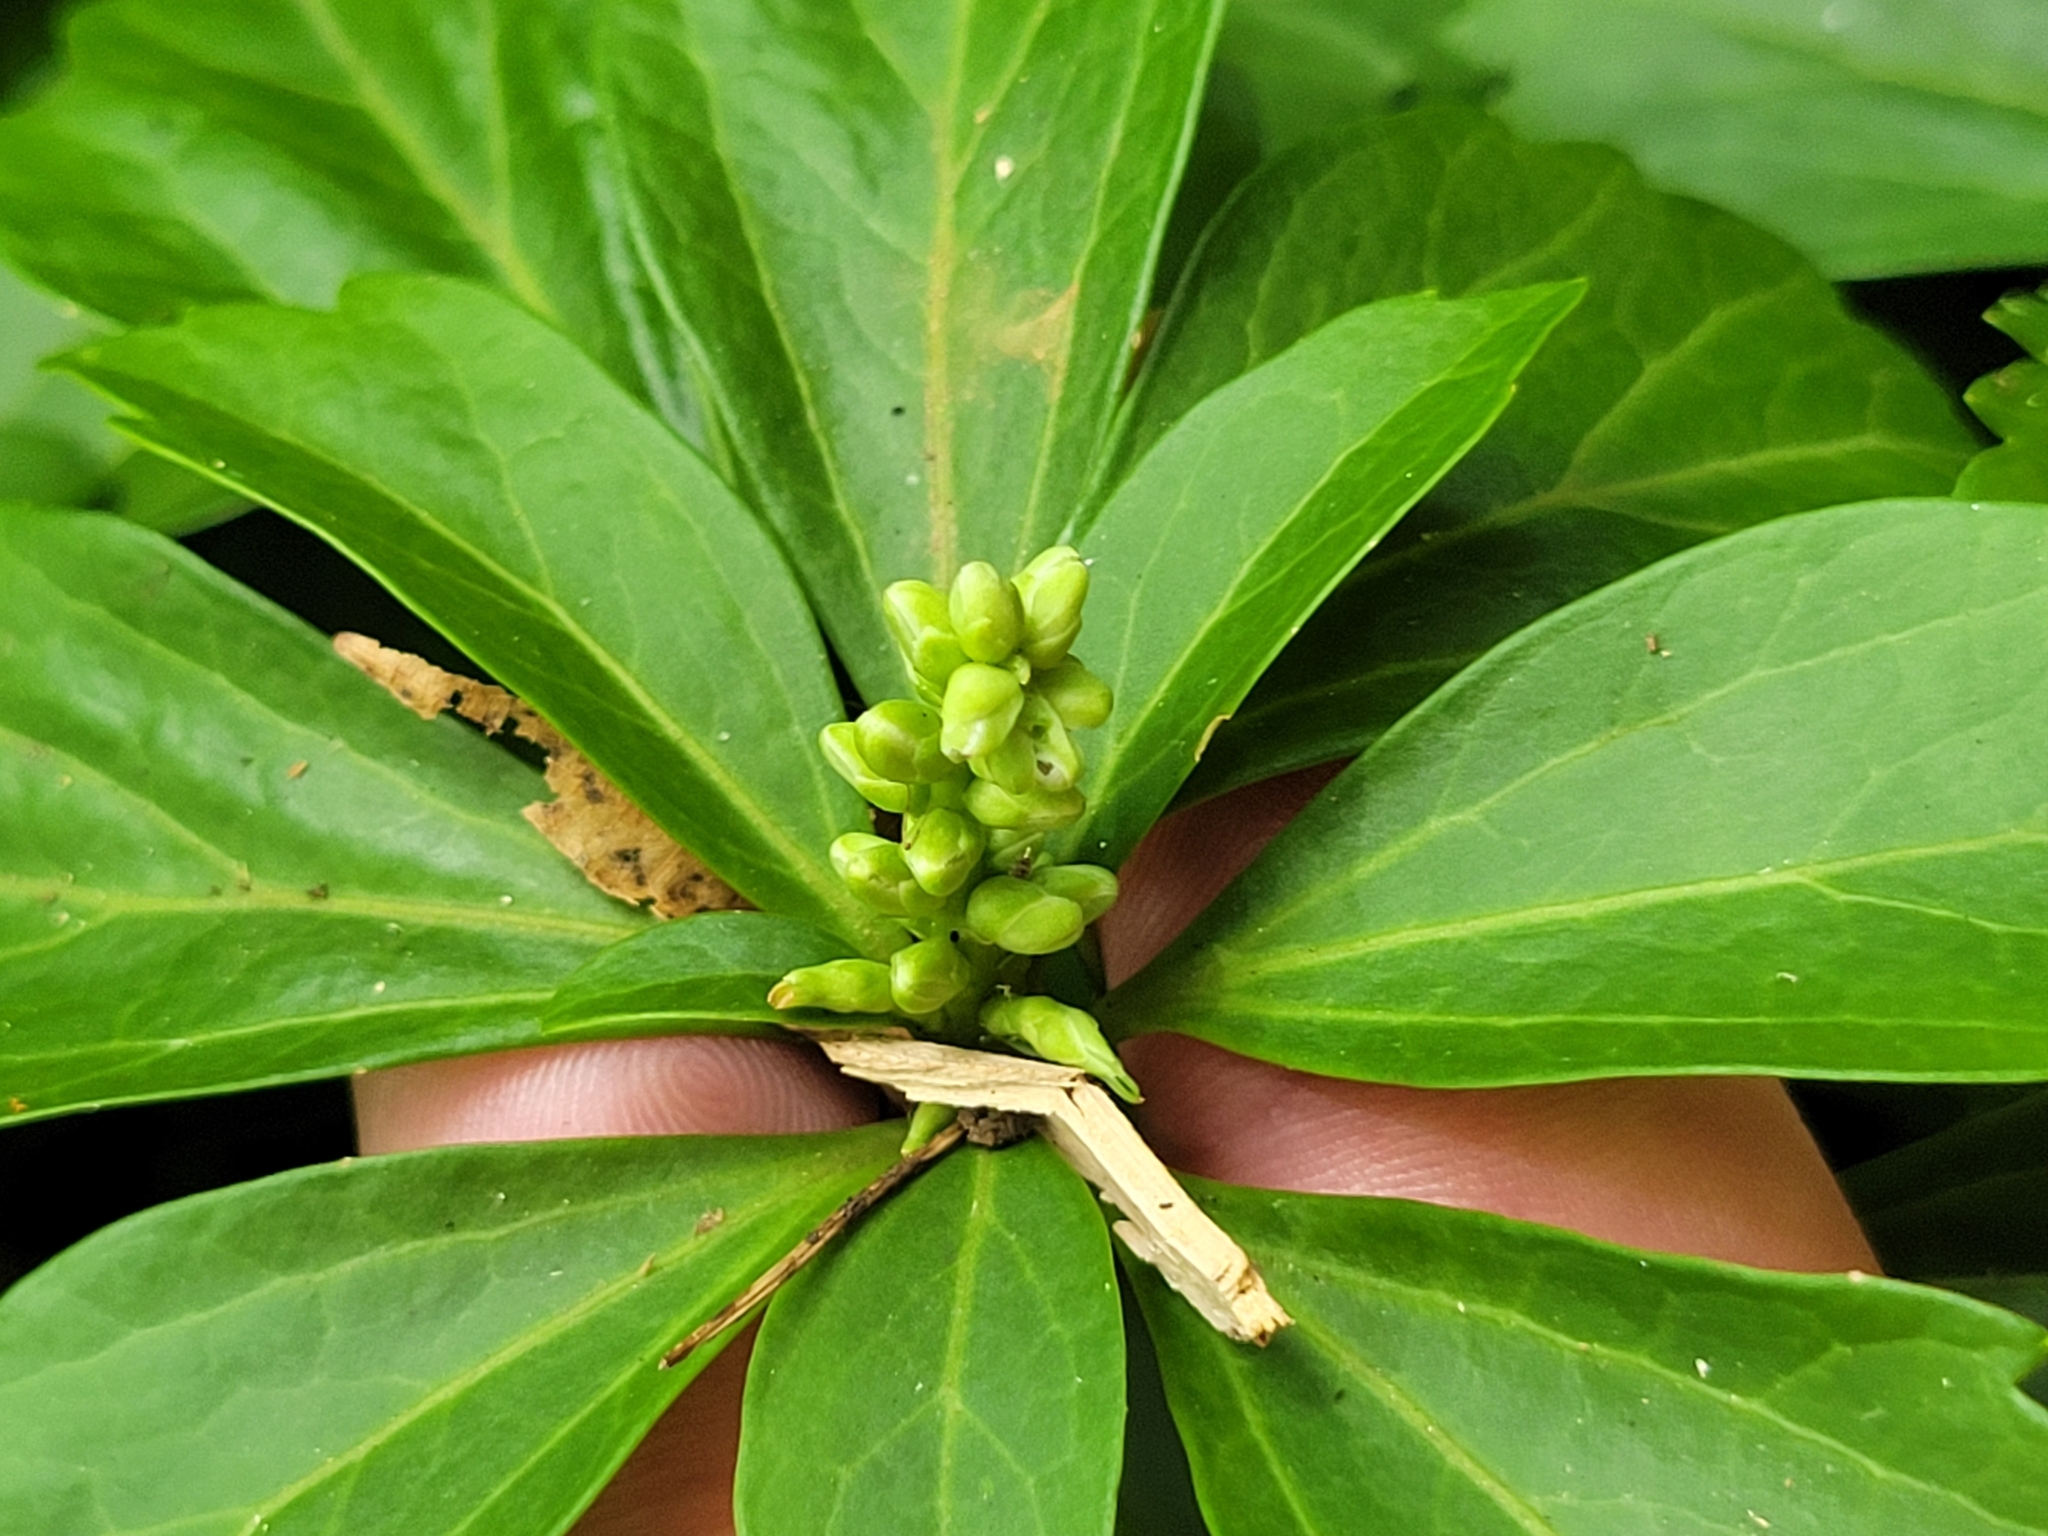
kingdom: Plantae
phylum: Tracheophyta
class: Magnoliopsida
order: Buxales
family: Buxaceae
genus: Pachysandra
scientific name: Pachysandra terminalis
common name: Japanese pachysandra
